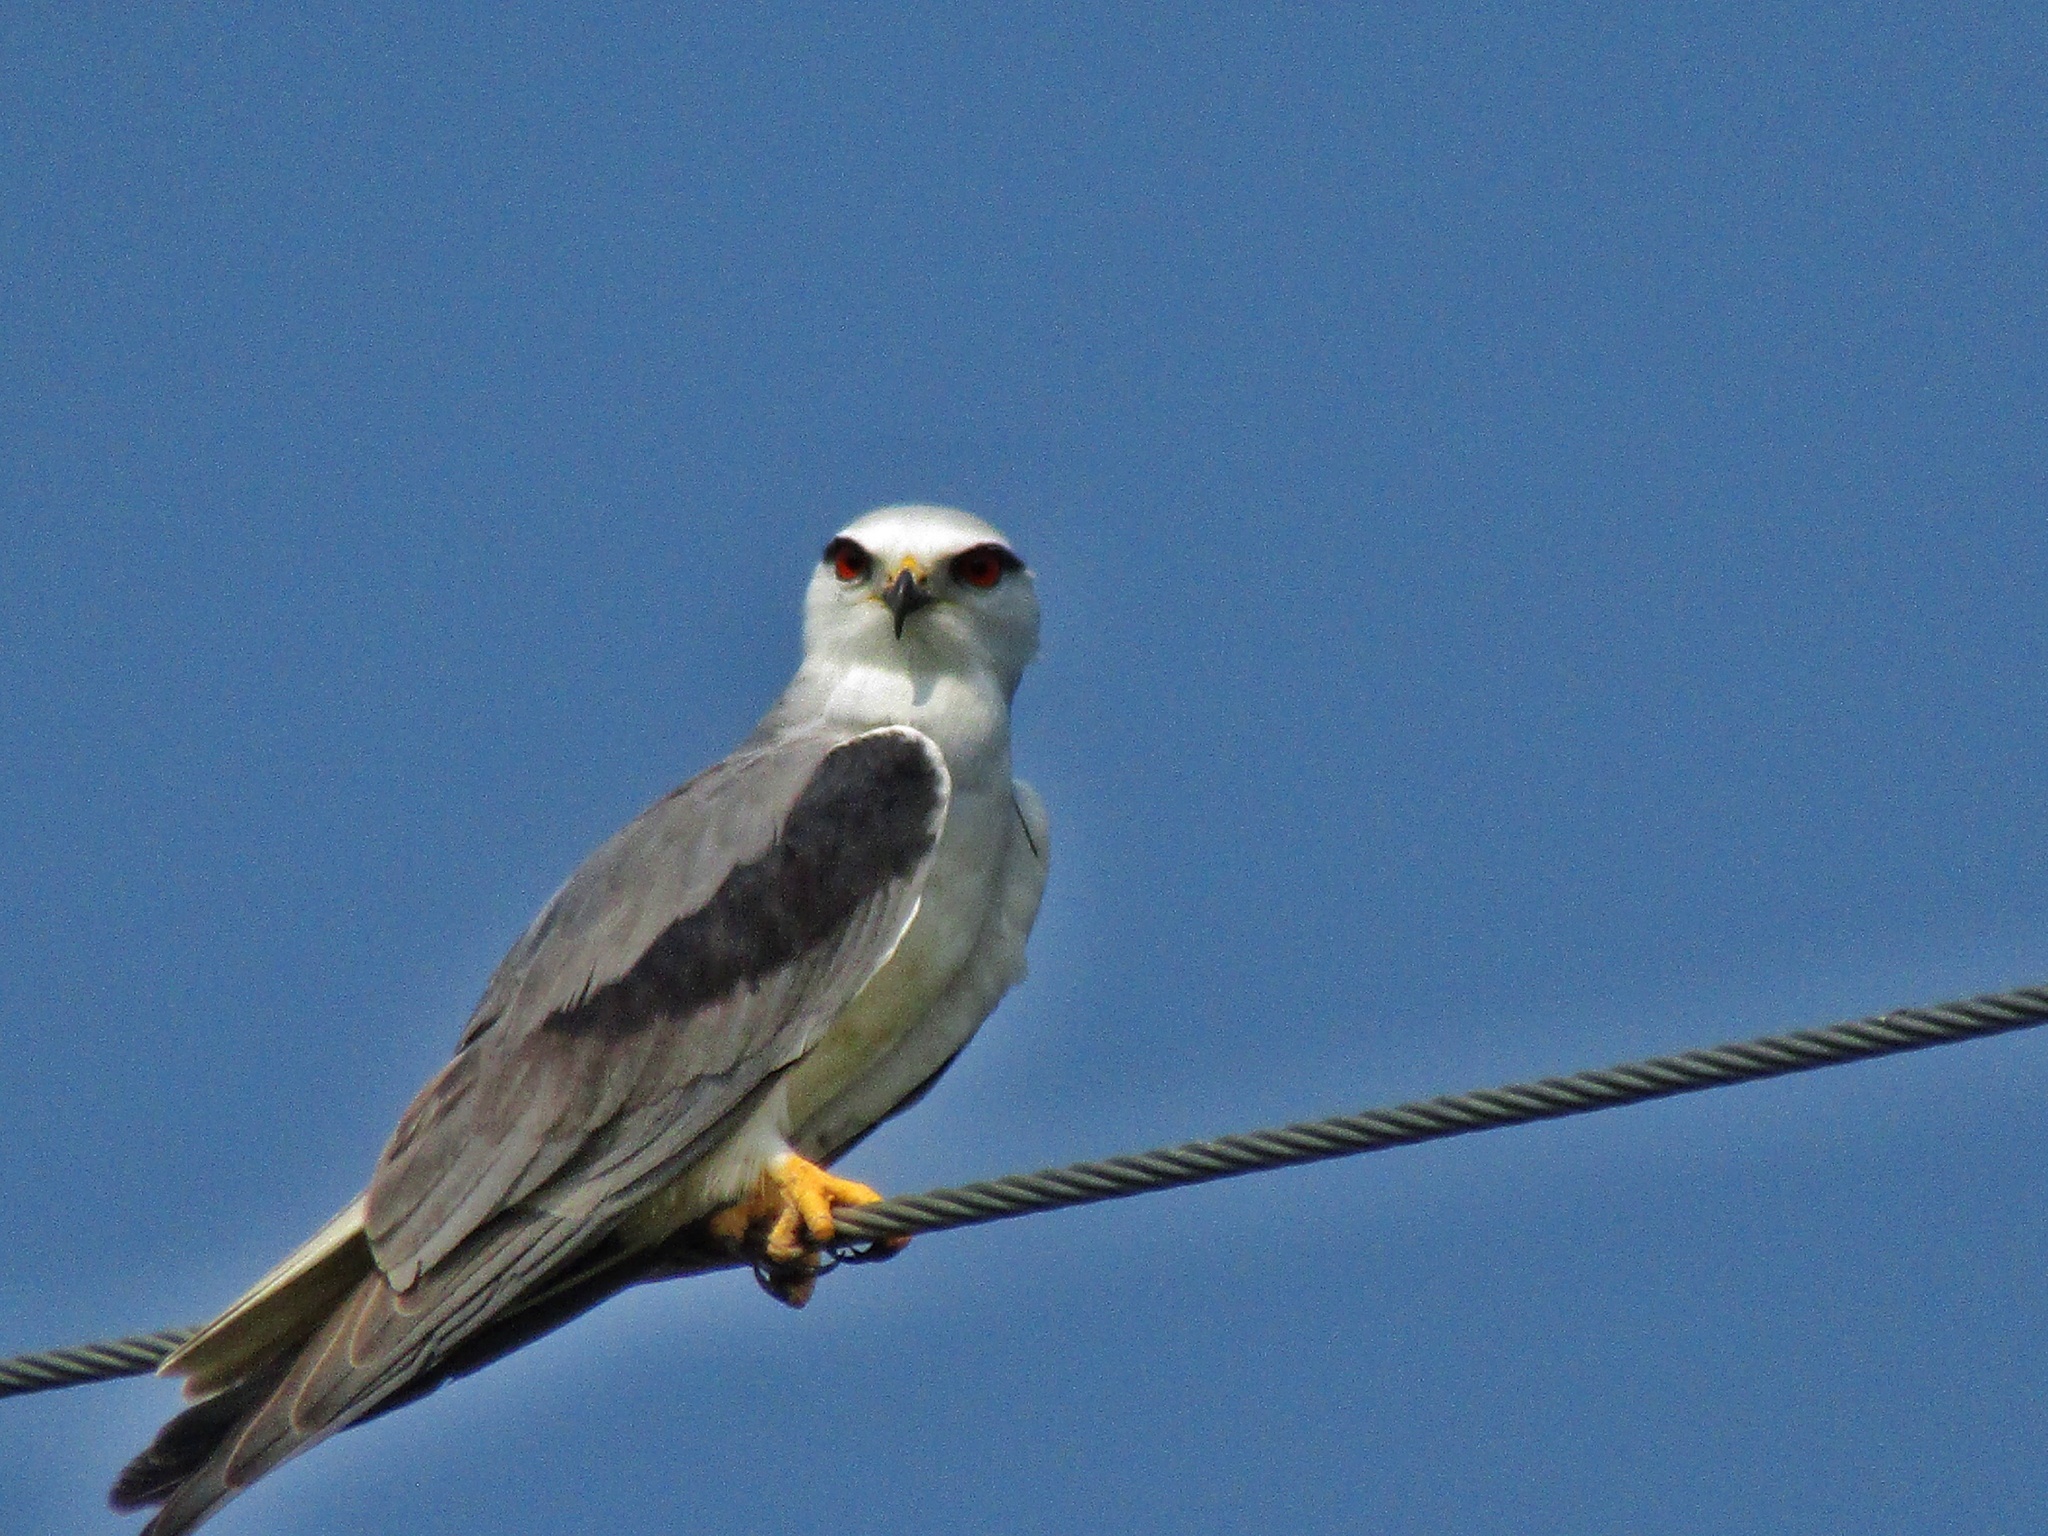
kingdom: Animalia
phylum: Chordata
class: Aves
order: Accipitriformes
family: Accipitridae
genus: Elanus
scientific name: Elanus caeruleus
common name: Black-winged kite
